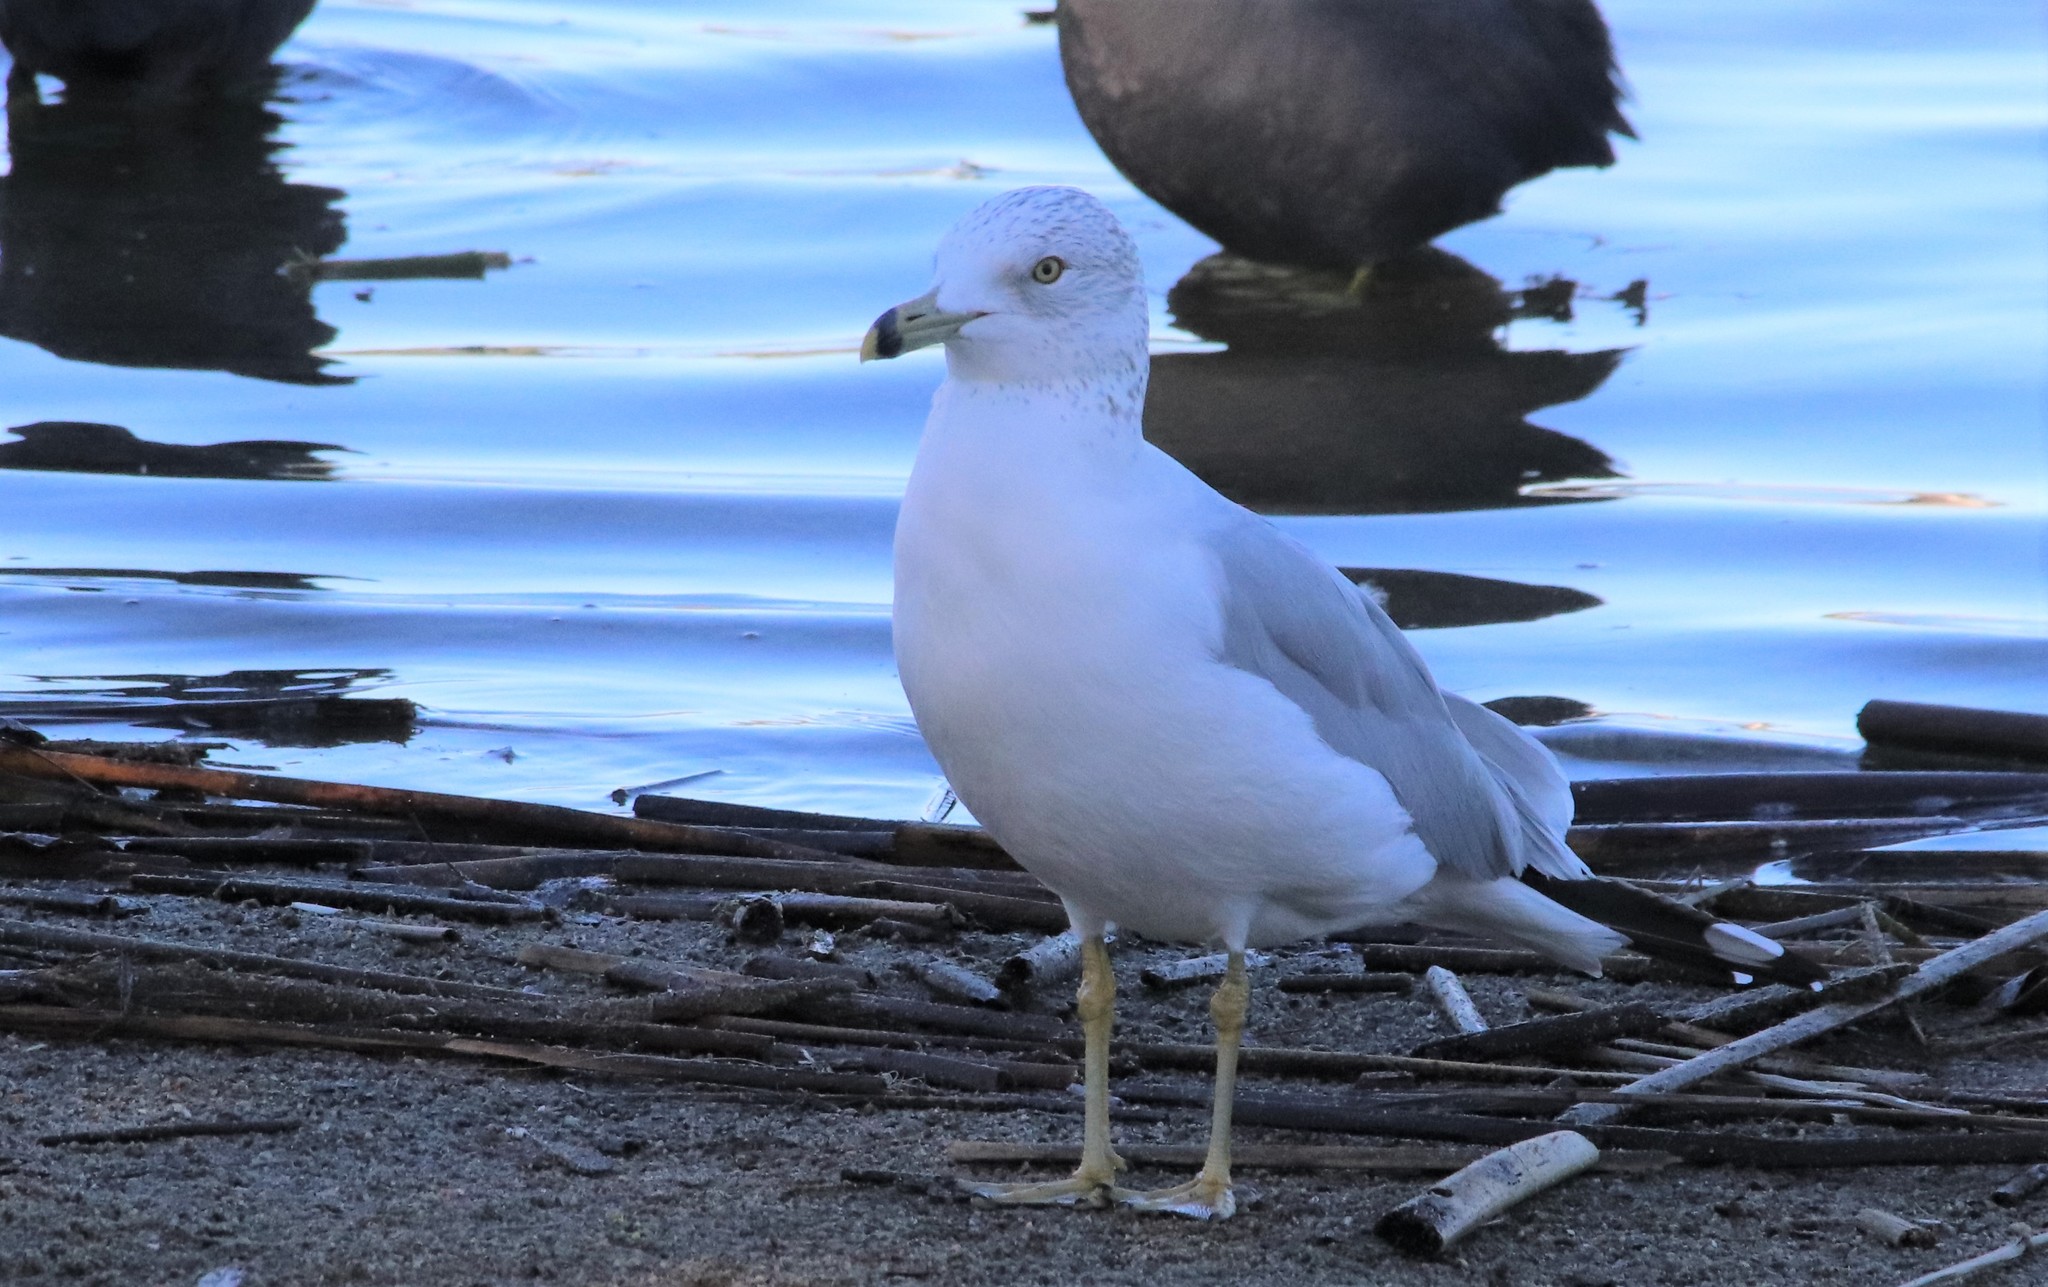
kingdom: Animalia
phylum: Chordata
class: Aves
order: Charadriiformes
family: Laridae
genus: Larus
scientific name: Larus delawarensis
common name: Ring-billed gull
